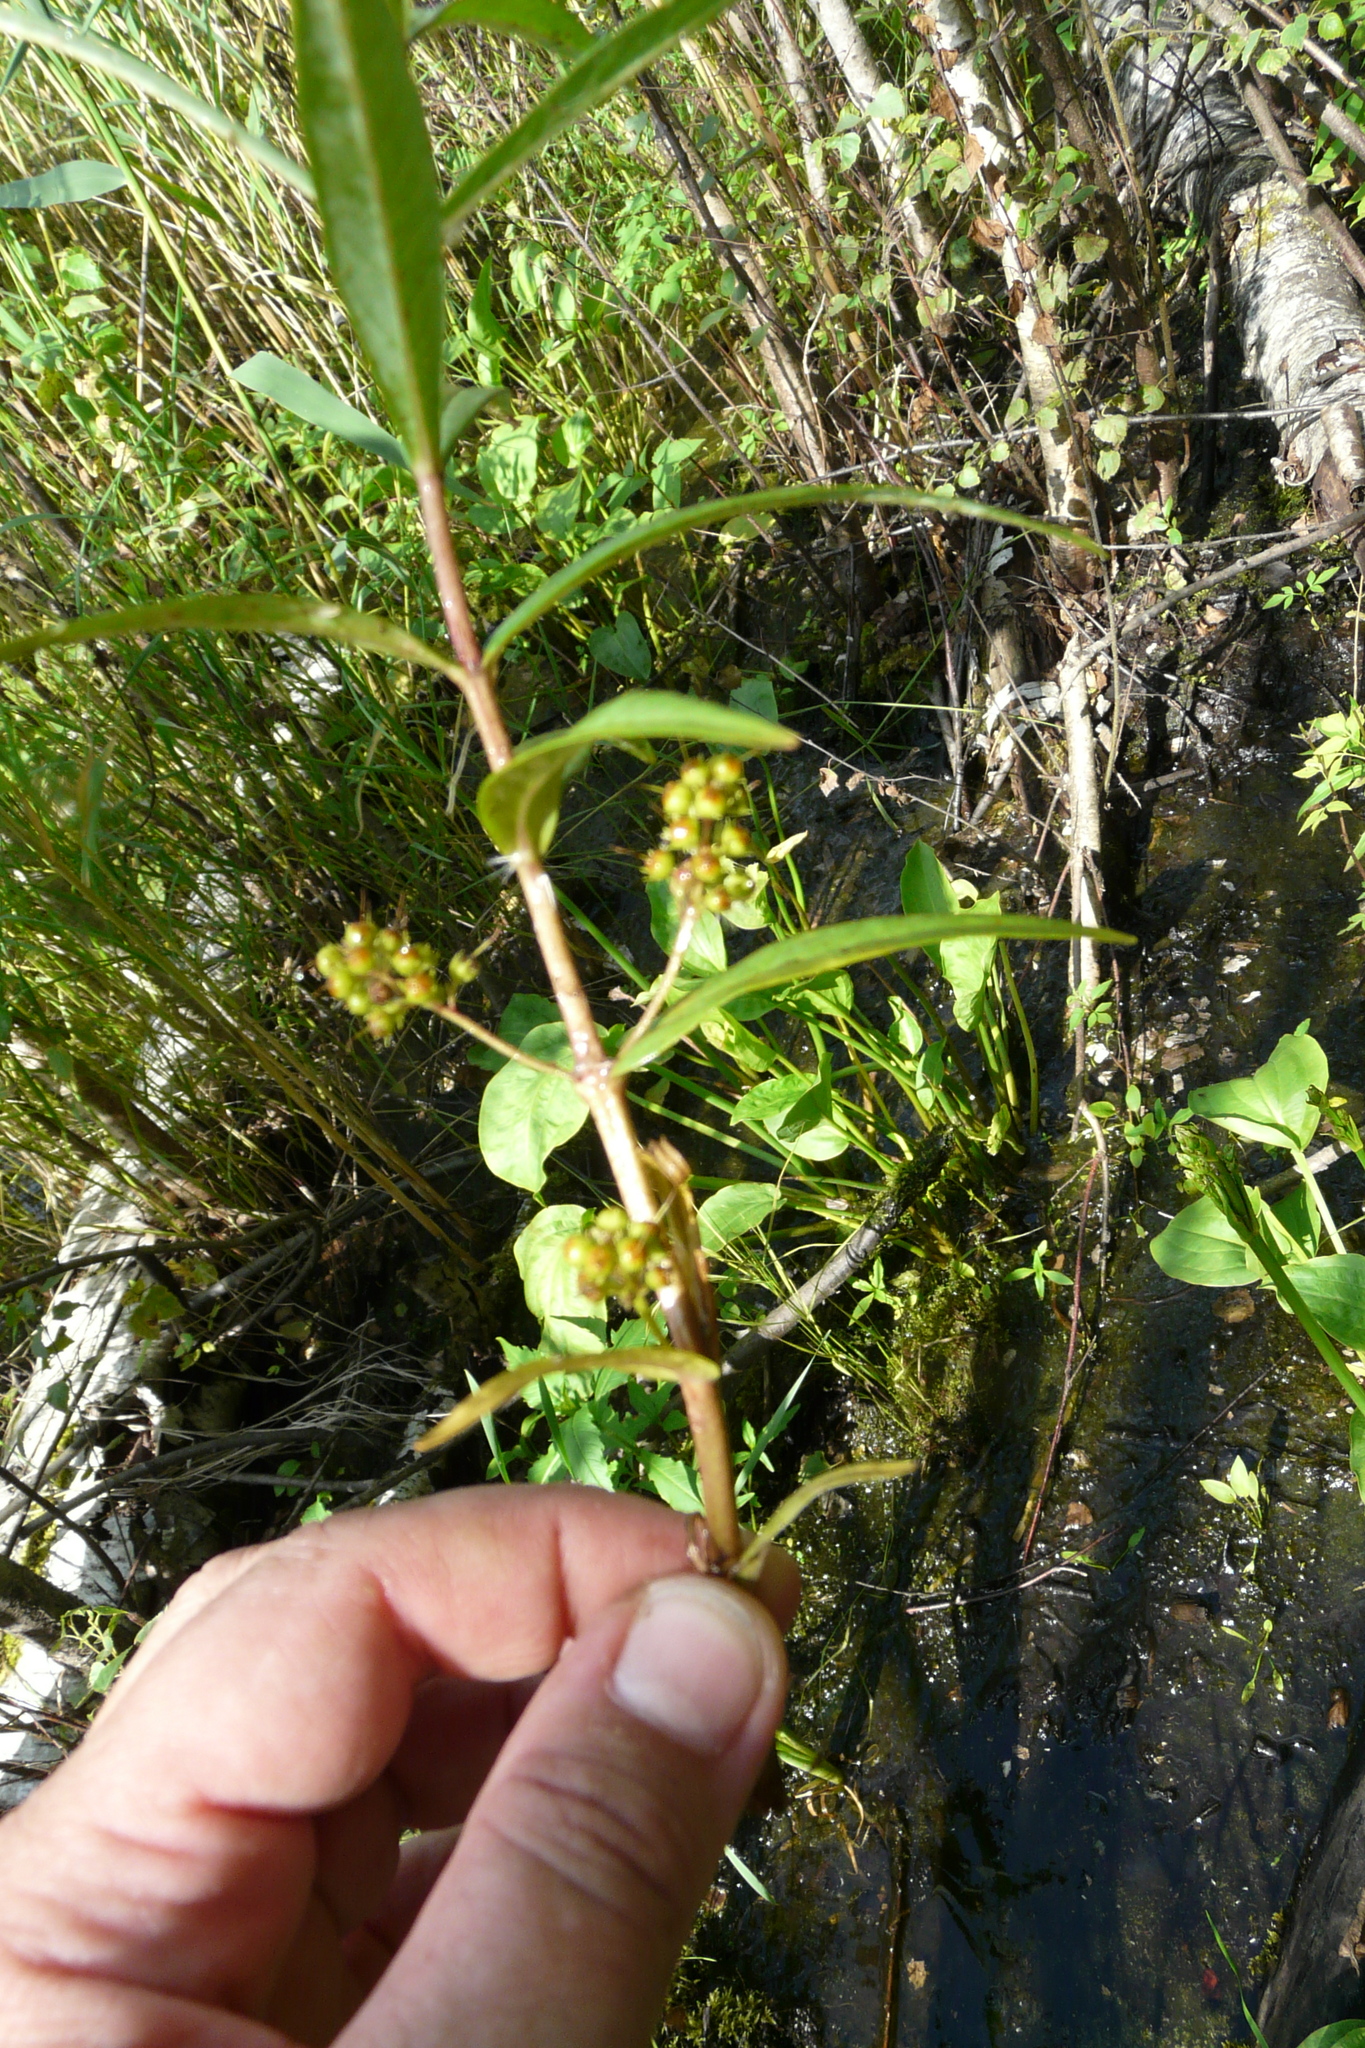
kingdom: Plantae
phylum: Tracheophyta
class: Magnoliopsida
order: Ericales
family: Primulaceae
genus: Lysimachia
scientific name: Lysimachia thyrsiflora
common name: Tufted loosestrife
